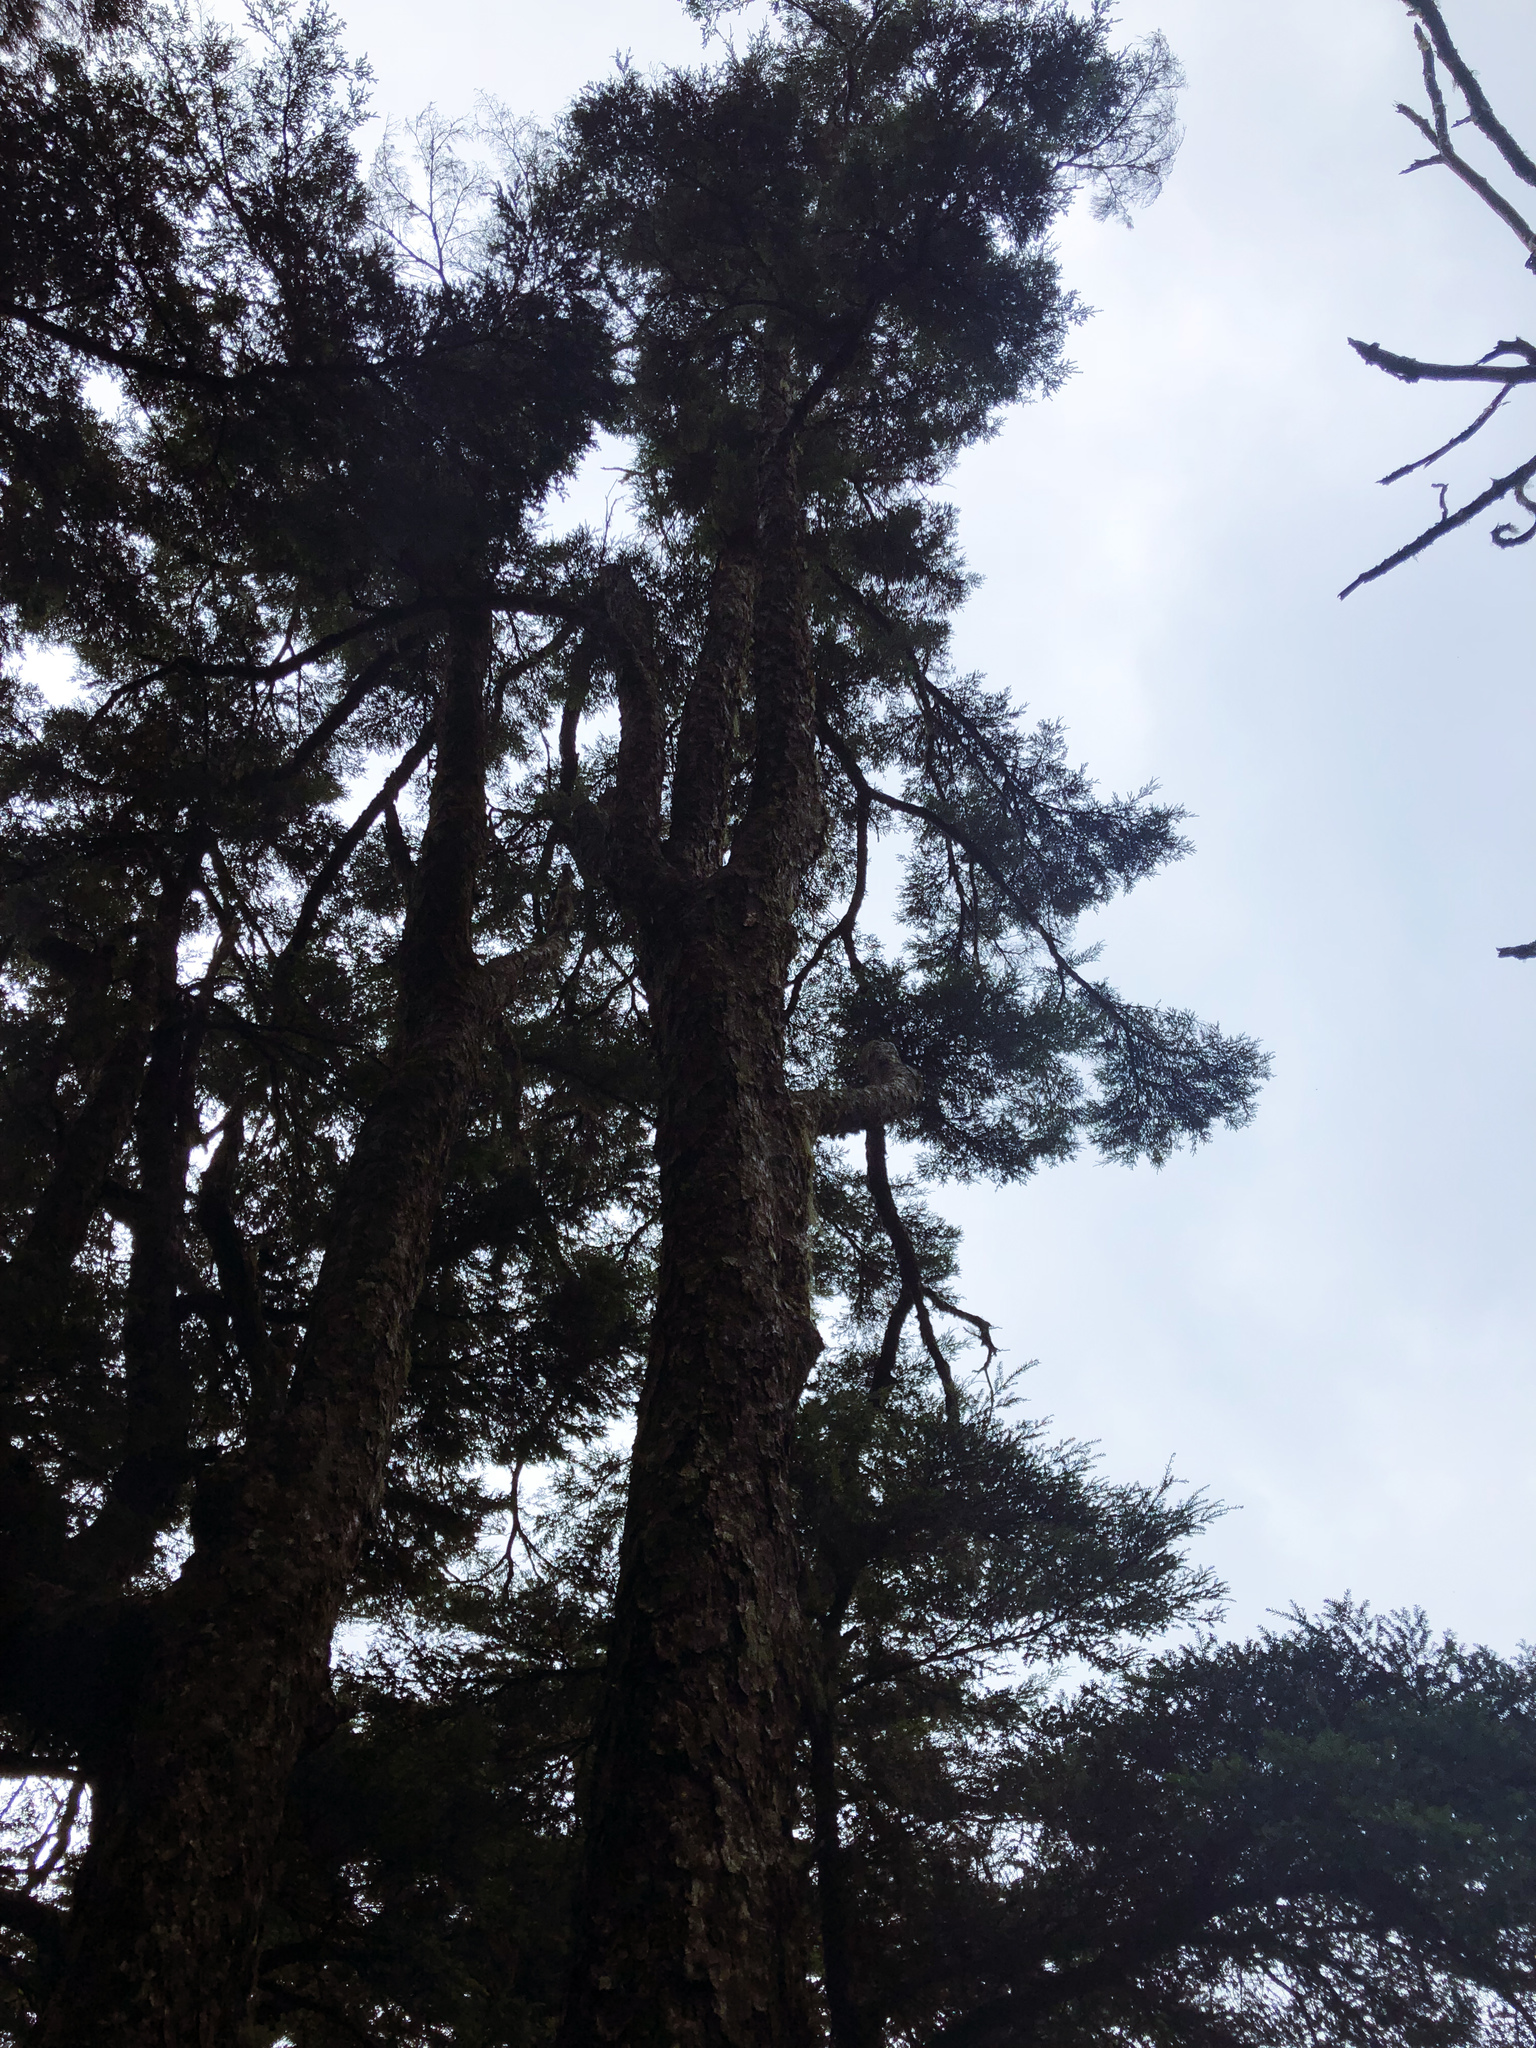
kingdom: Plantae
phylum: Tracheophyta
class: Pinopsida
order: Pinales
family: Pinaceae
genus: Tsuga
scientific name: Tsuga chinensis
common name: Chinese hemlock
